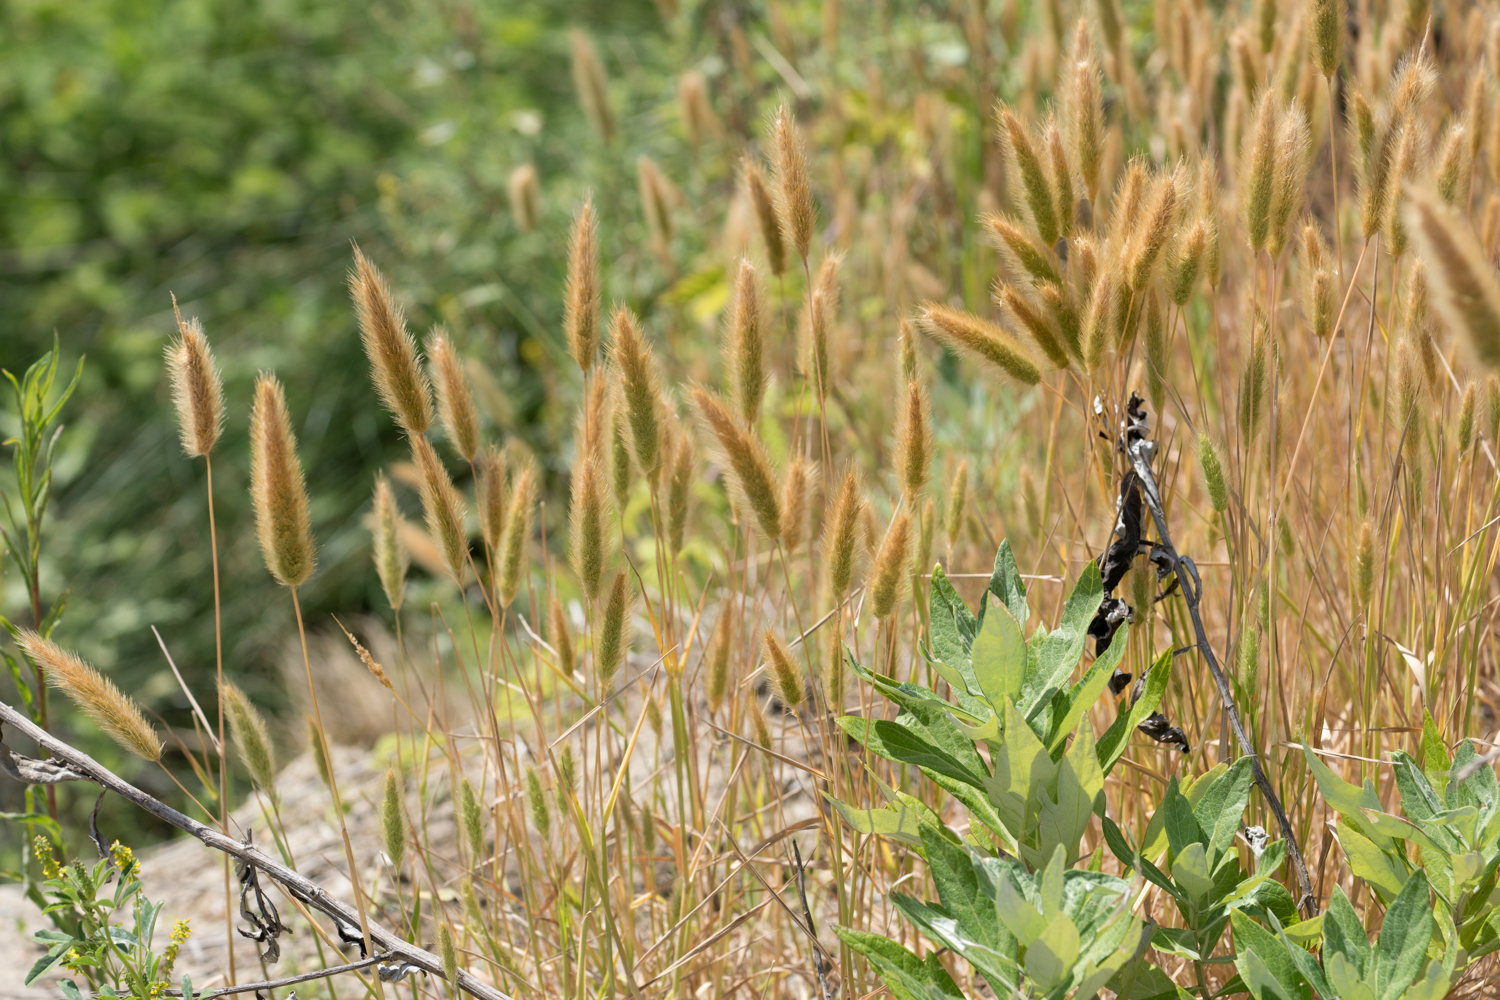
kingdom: Plantae
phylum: Tracheophyta
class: Liliopsida
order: Poales
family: Poaceae
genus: Polypogon
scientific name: Polypogon monspeliensis
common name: Annual rabbitsfoot grass
